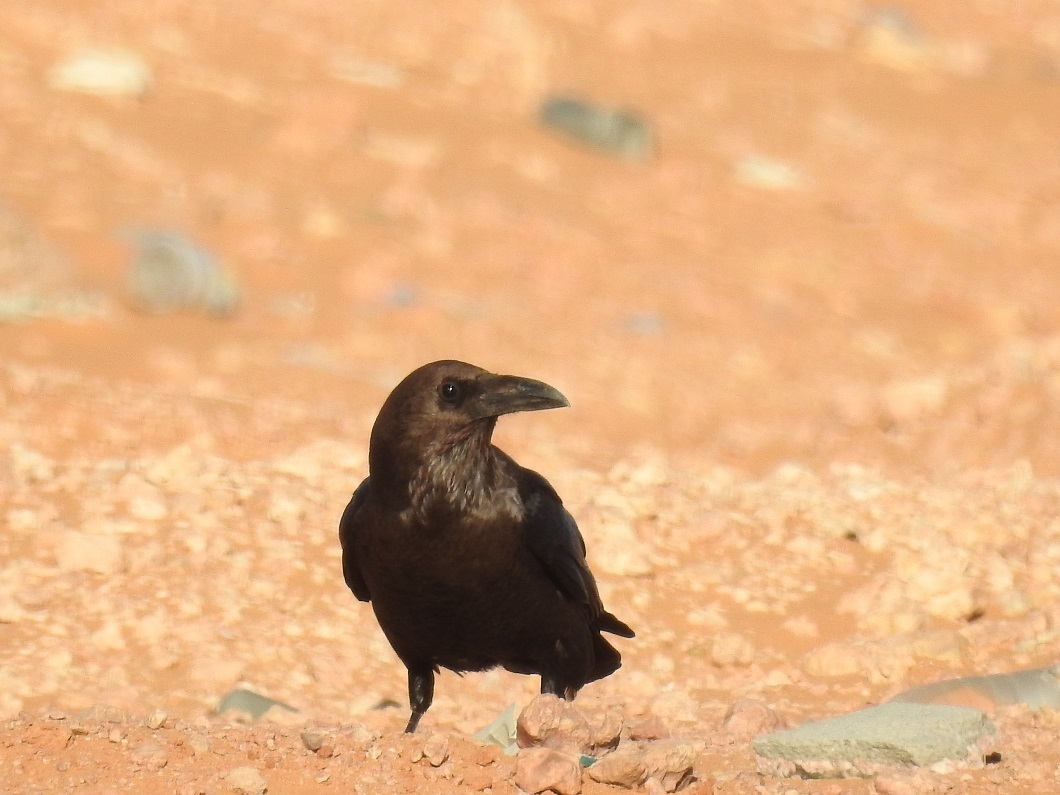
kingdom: Animalia
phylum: Chordata
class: Aves
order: Passeriformes
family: Corvidae
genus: Corvus
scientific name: Corvus ruficollis
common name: Brown-necked raven
